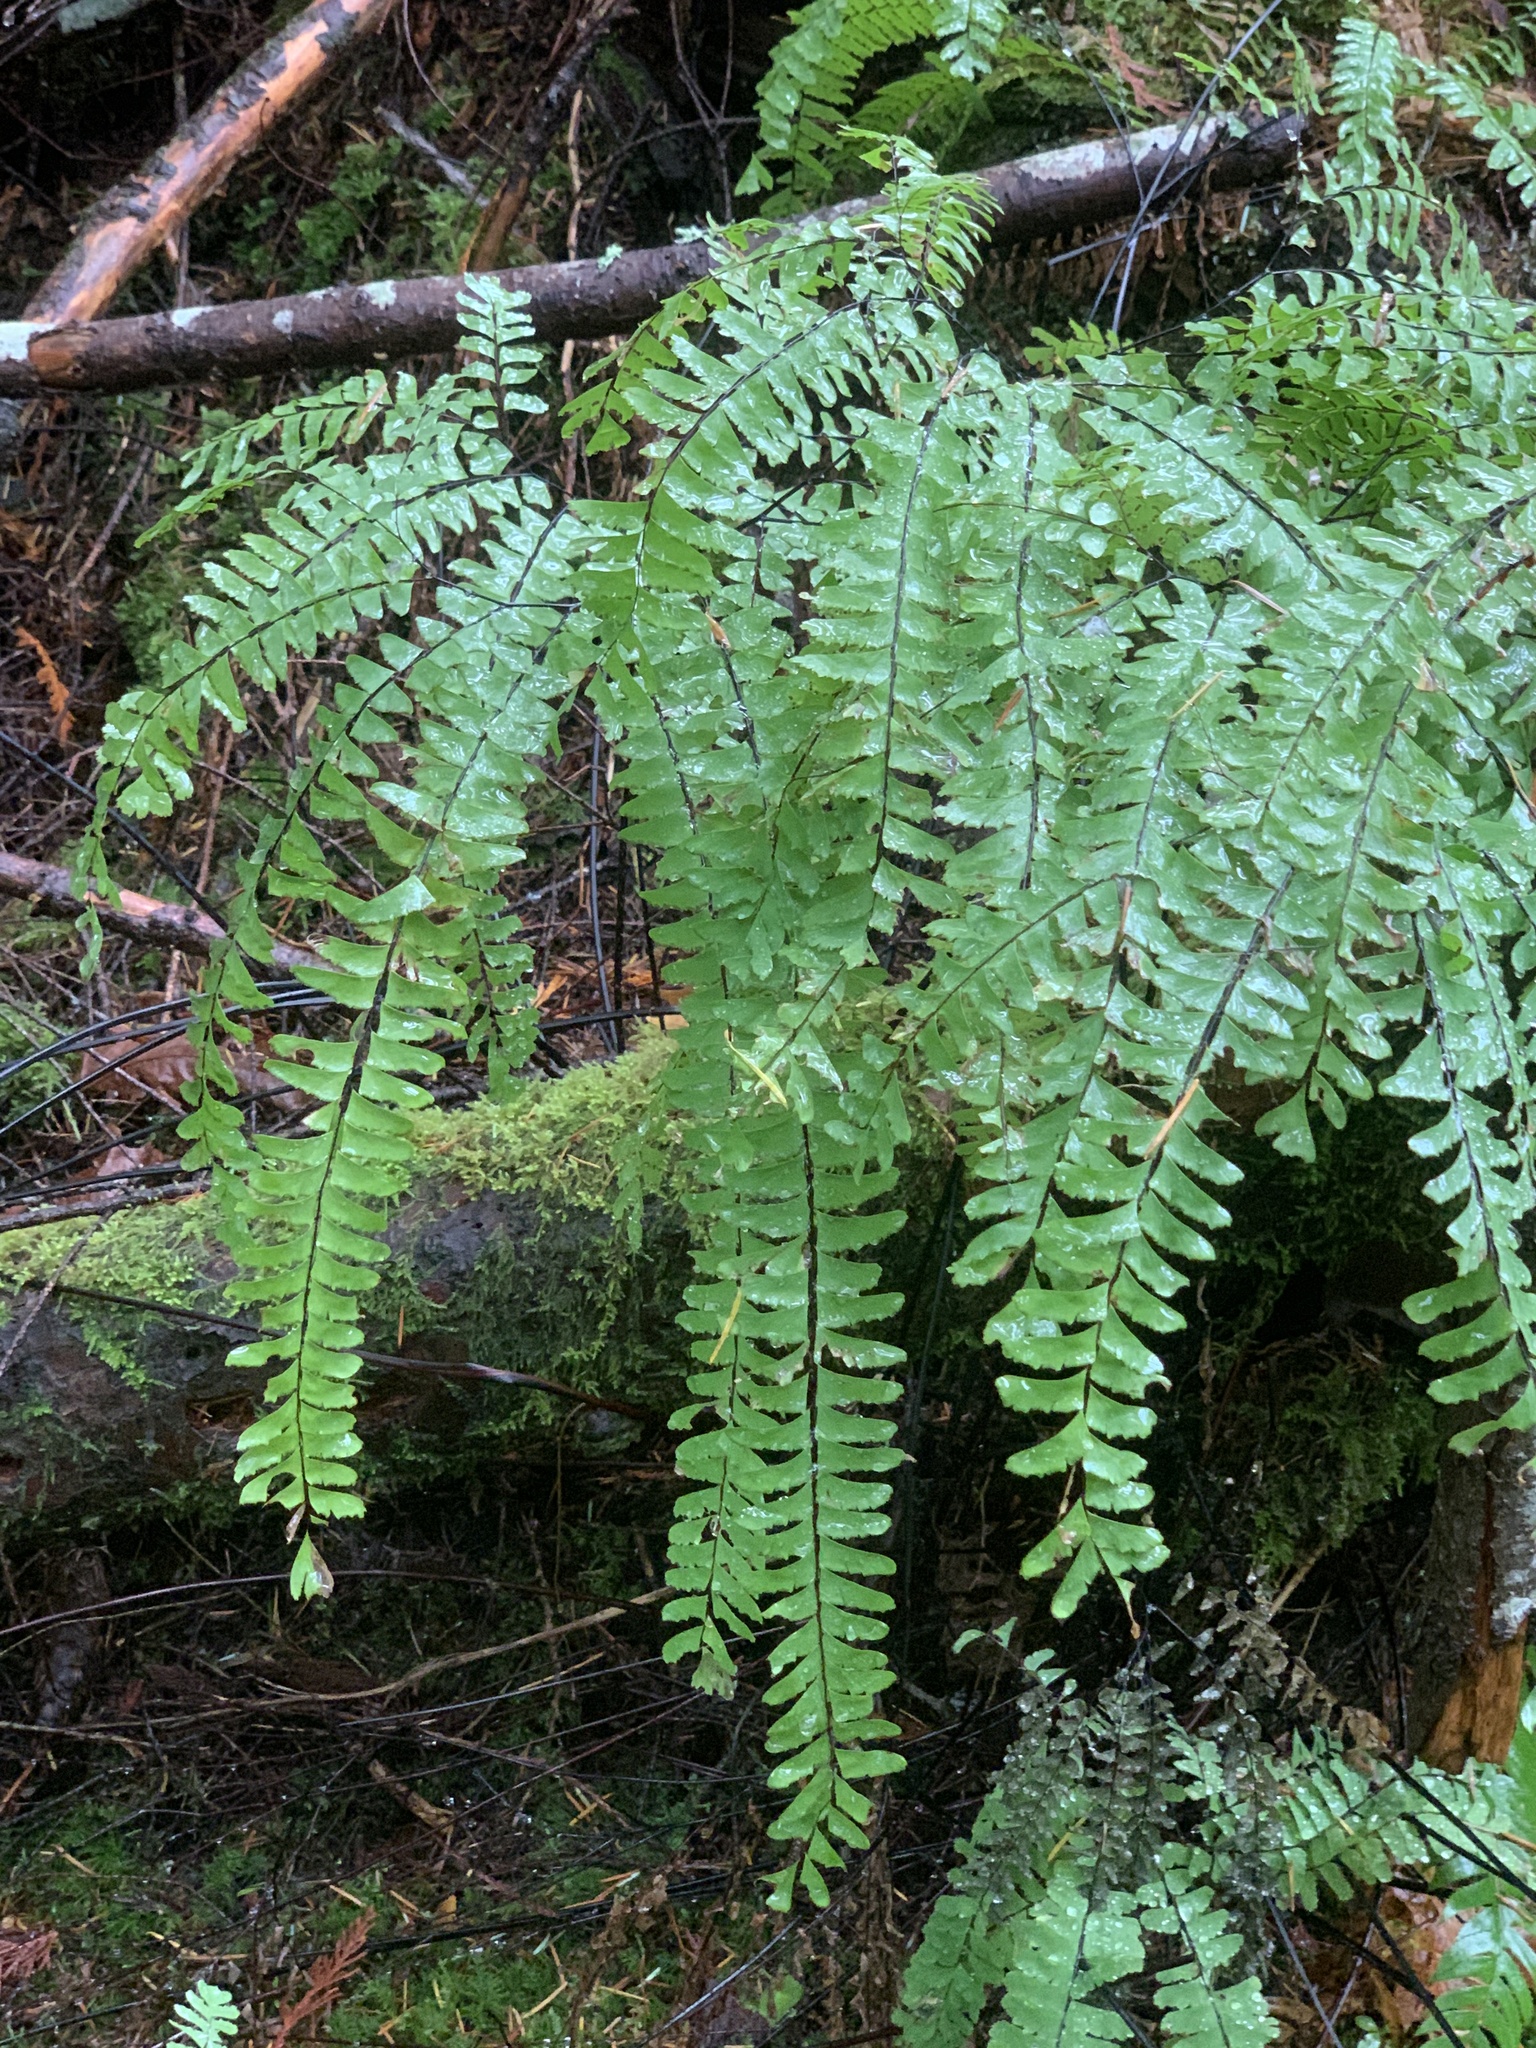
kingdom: Plantae
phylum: Tracheophyta
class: Polypodiopsida
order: Polypodiales
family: Pteridaceae
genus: Adiantum
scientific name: Adiantum aleuticum
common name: Aleutian maidenhair fern
